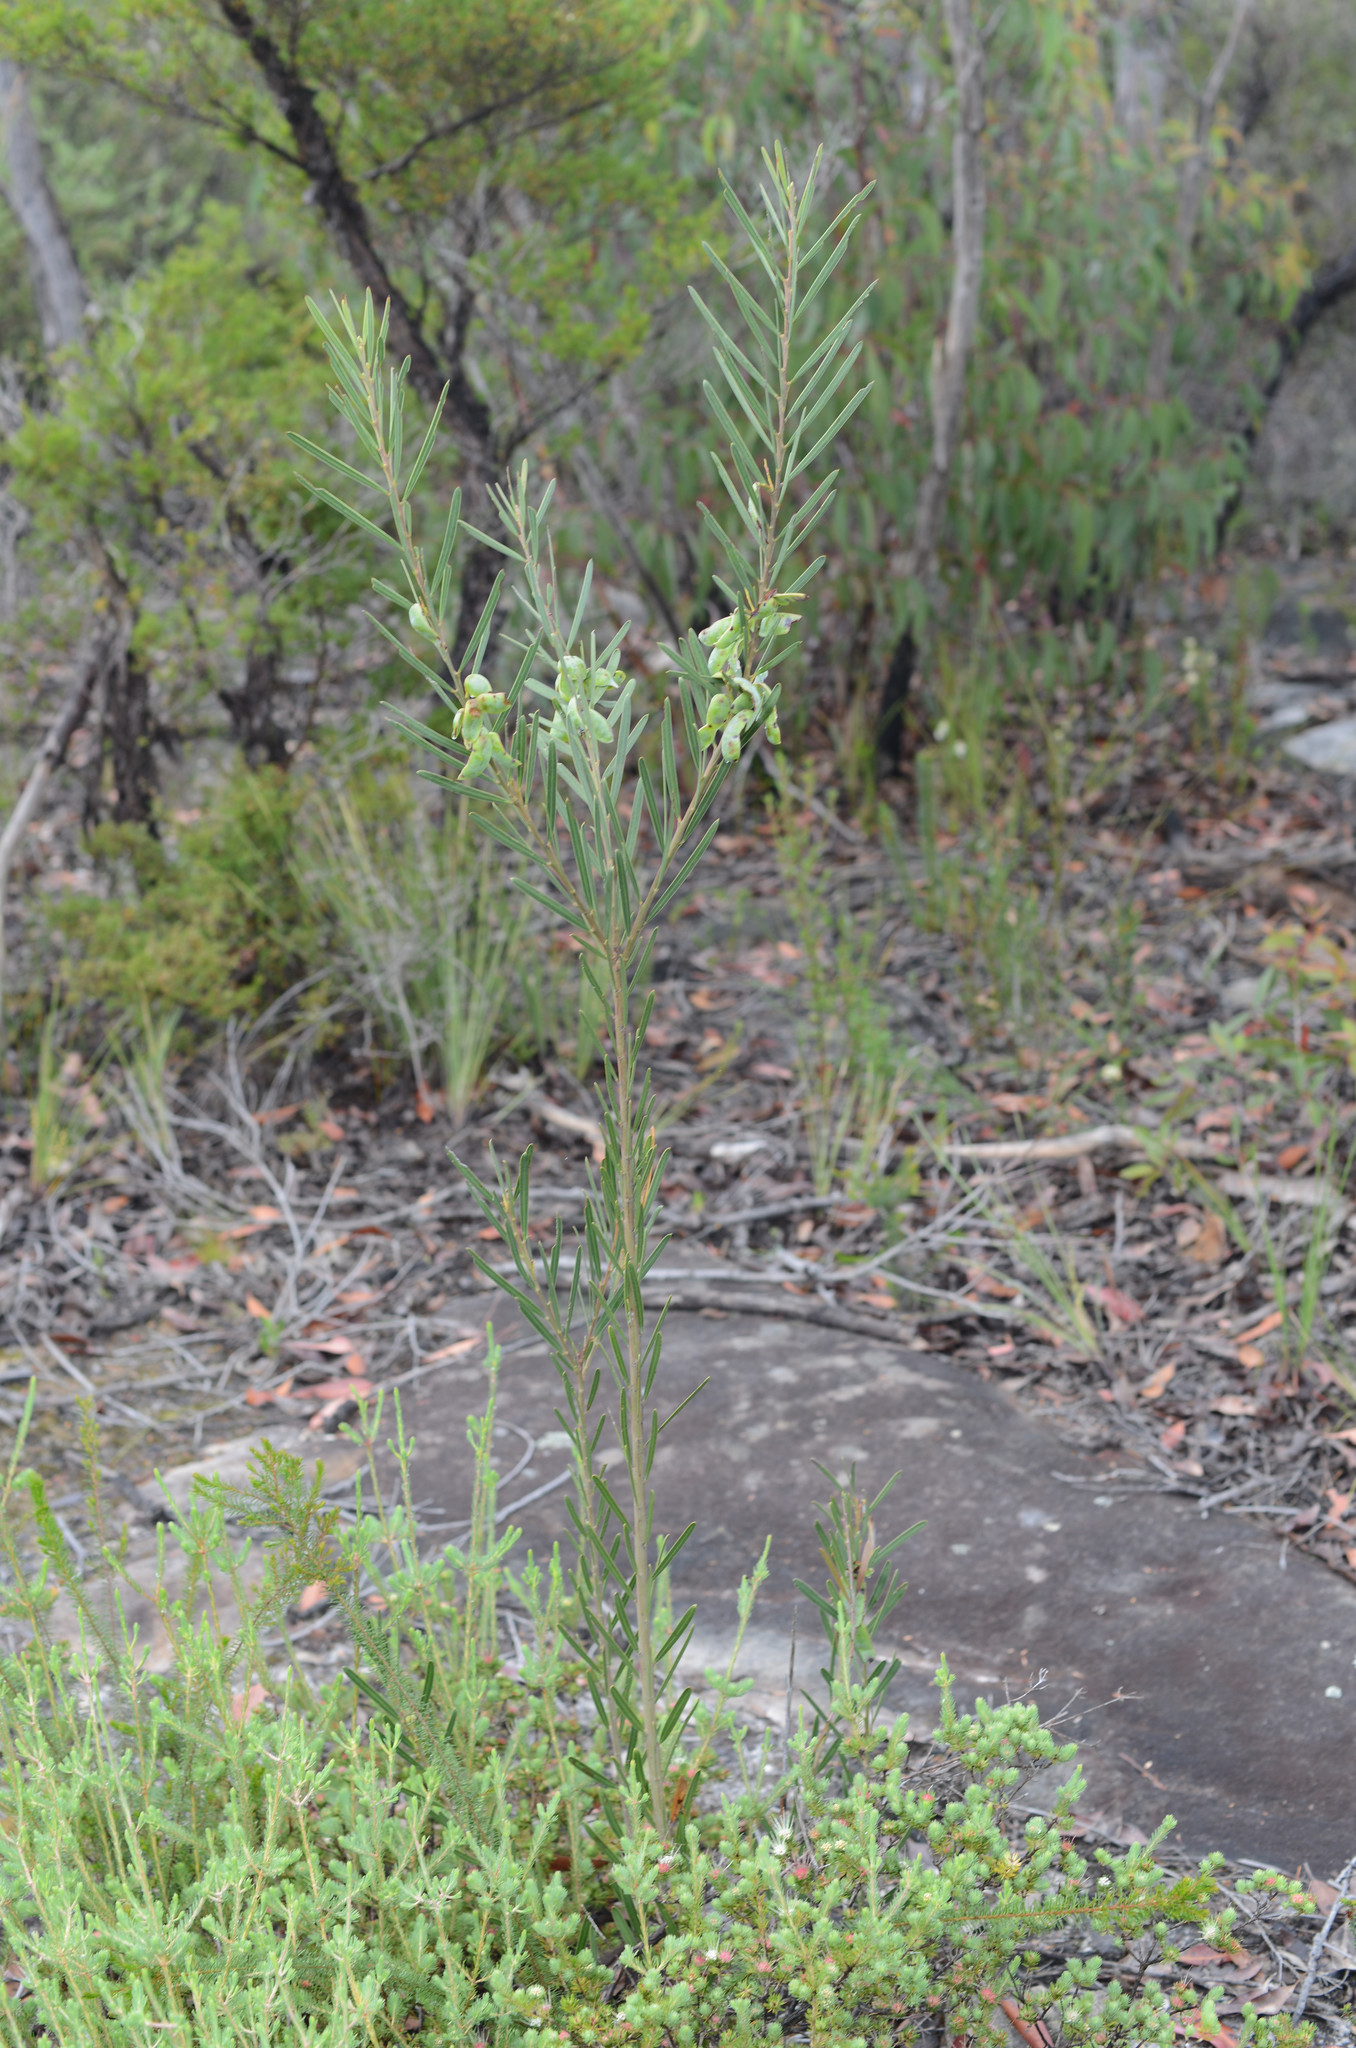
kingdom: Plantae
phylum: Tracheophyta
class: Magnoliopsida
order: Fabales
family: Fabaceae
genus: Acacia
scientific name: Acacia suaveolens
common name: Sweet acacia
